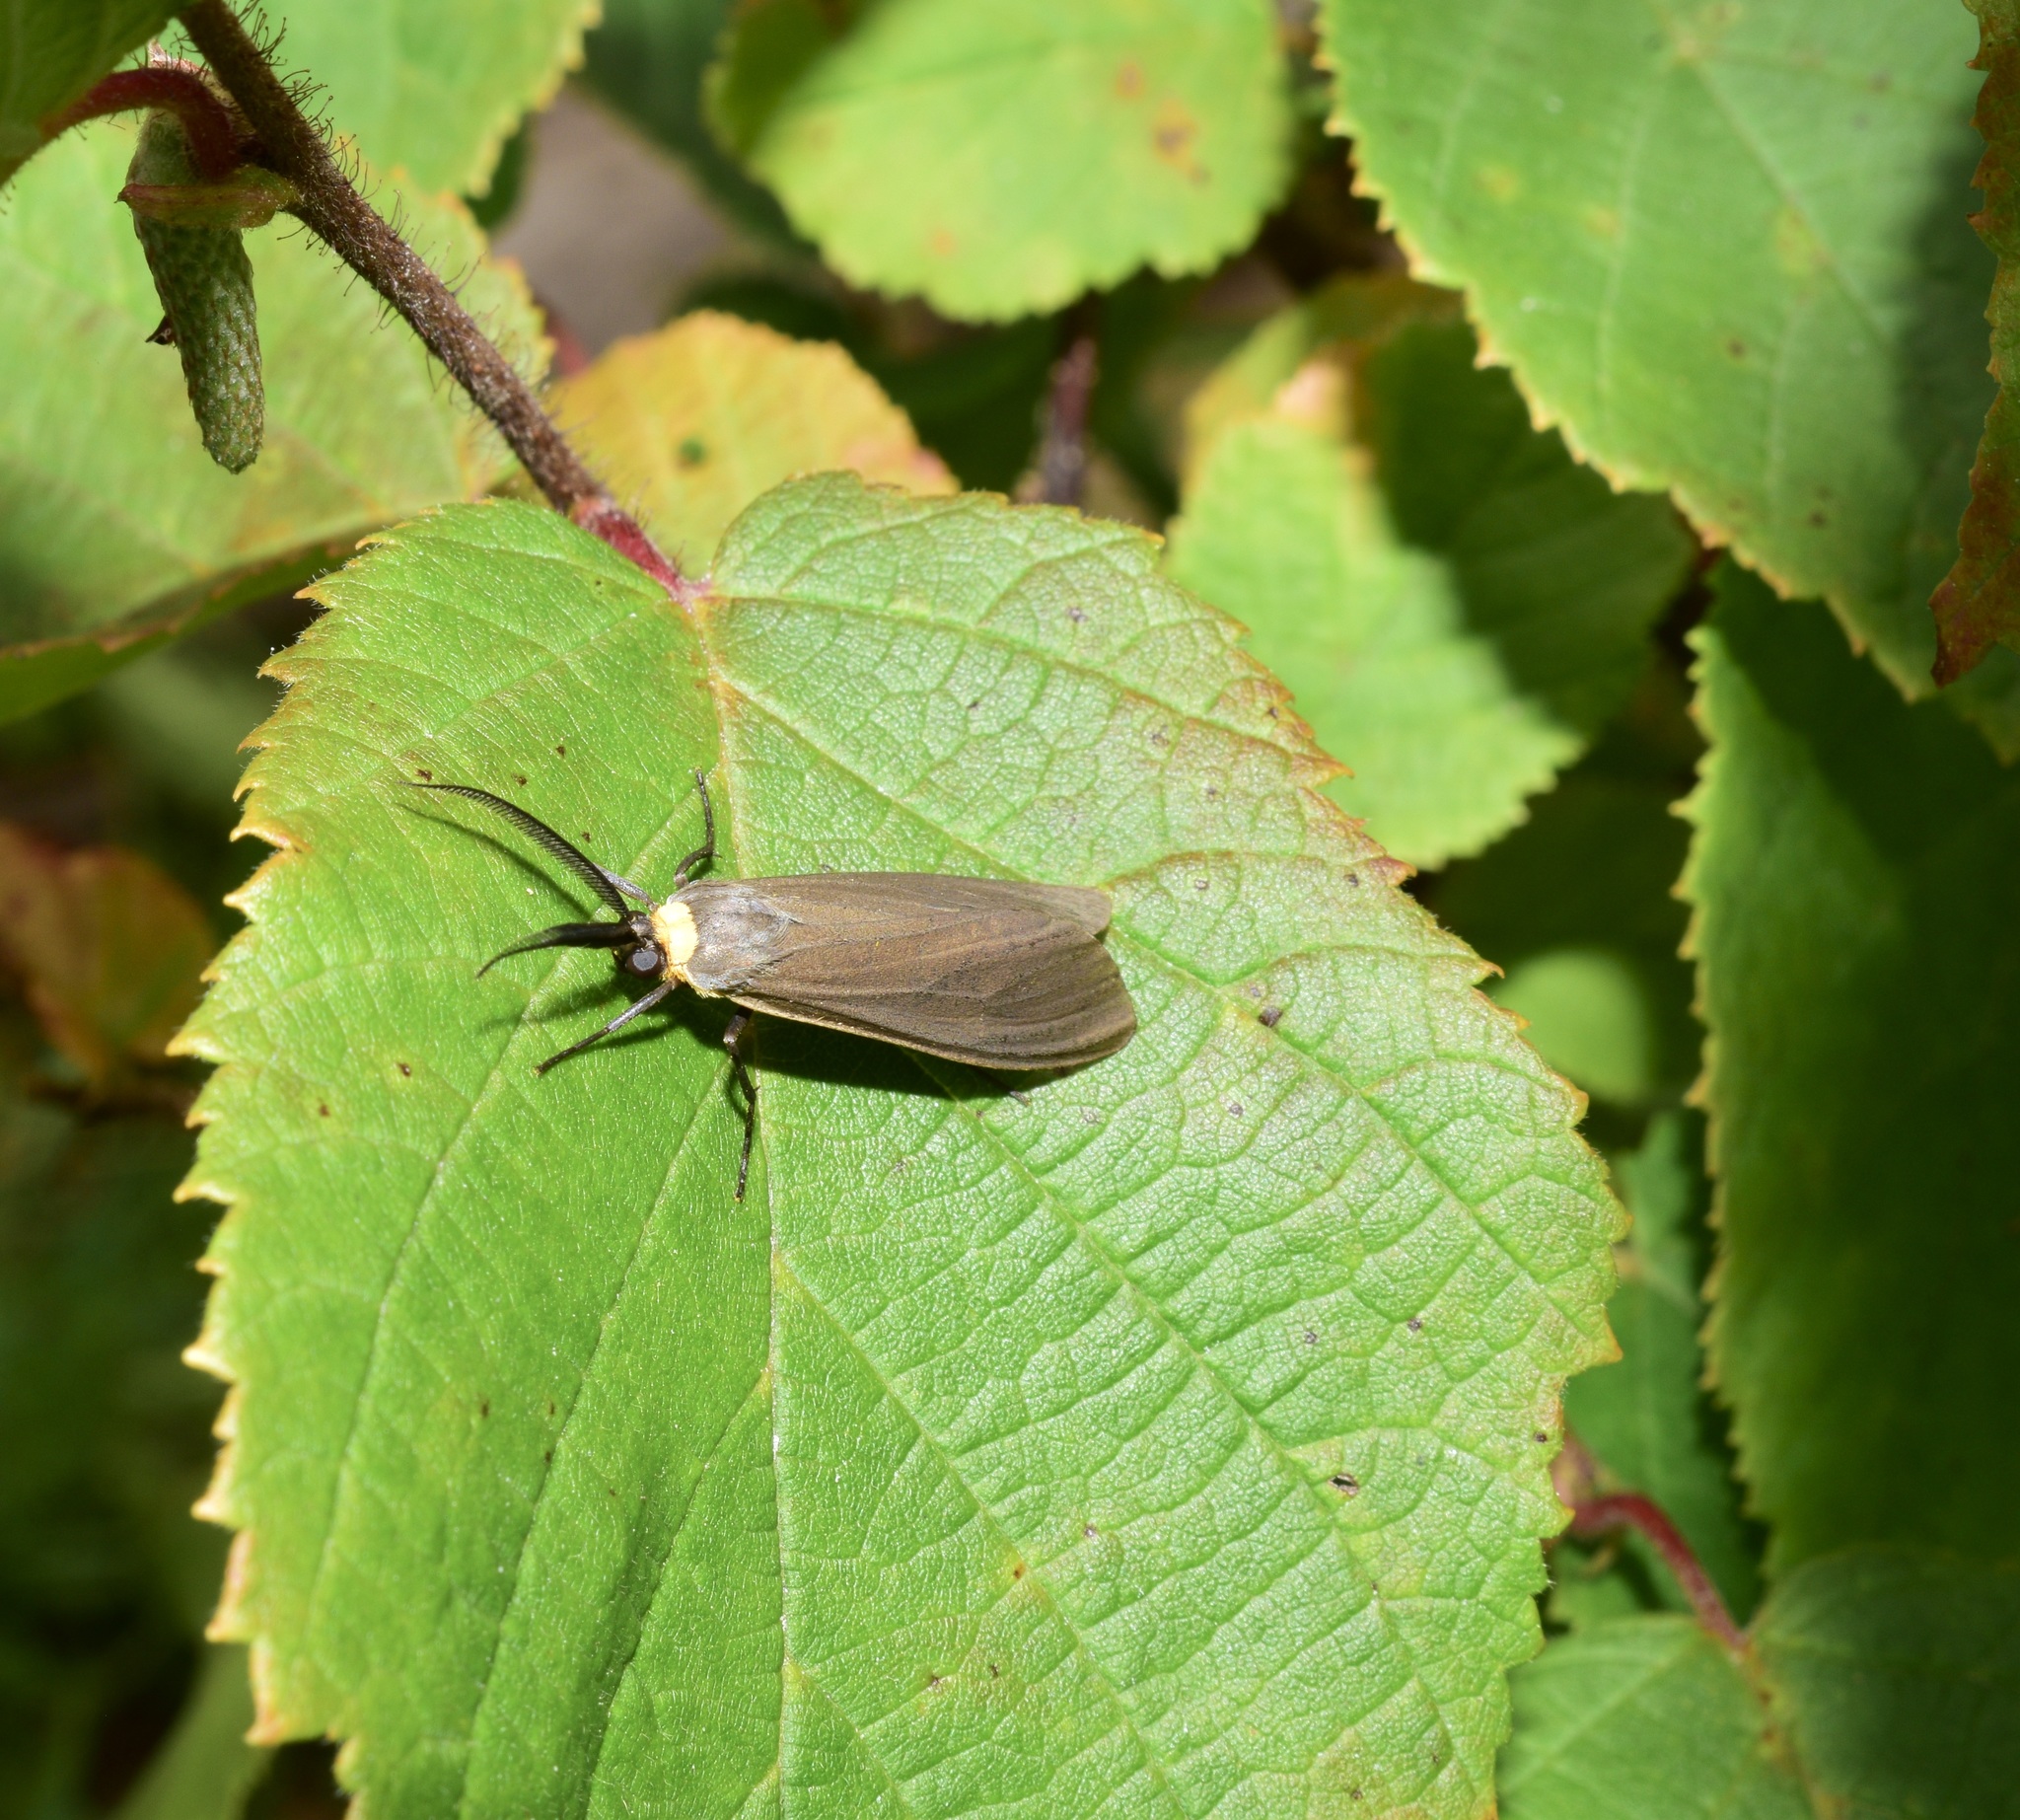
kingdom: Animalia
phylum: Arthropoda
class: Insecta
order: Lepidoptera
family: Erebidae
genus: Cisseps
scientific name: Cisseps fulvicollis
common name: Yellow-collared scape moth
